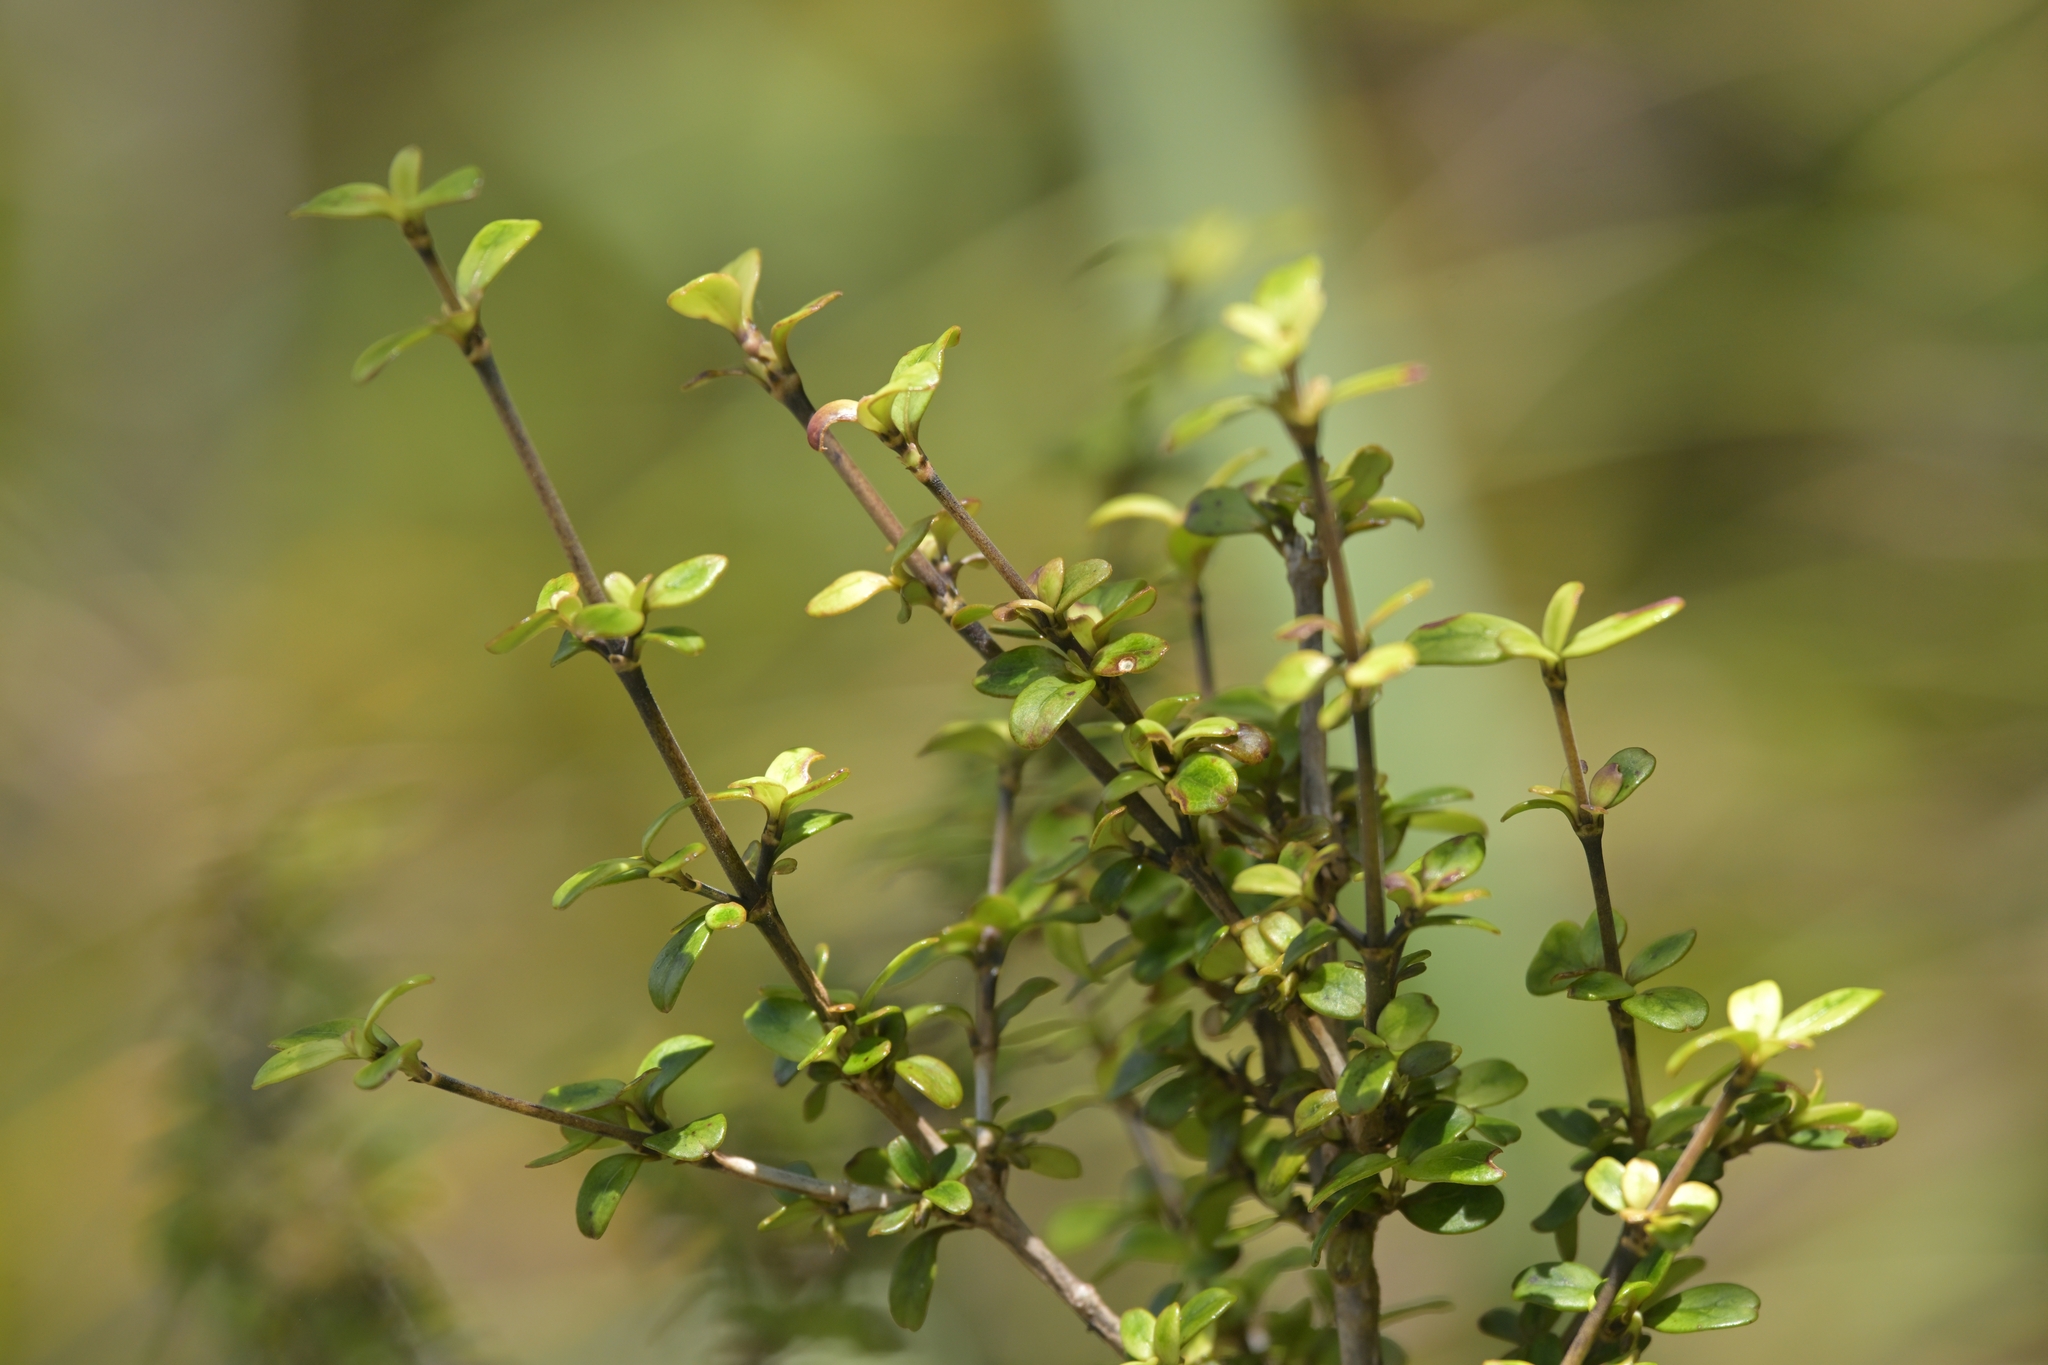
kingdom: Plantae
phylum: Tracheophyta
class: Magnoliopsida
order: Gentianales
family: Rubiaceae
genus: Coprosma
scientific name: Coprosma crenulata
